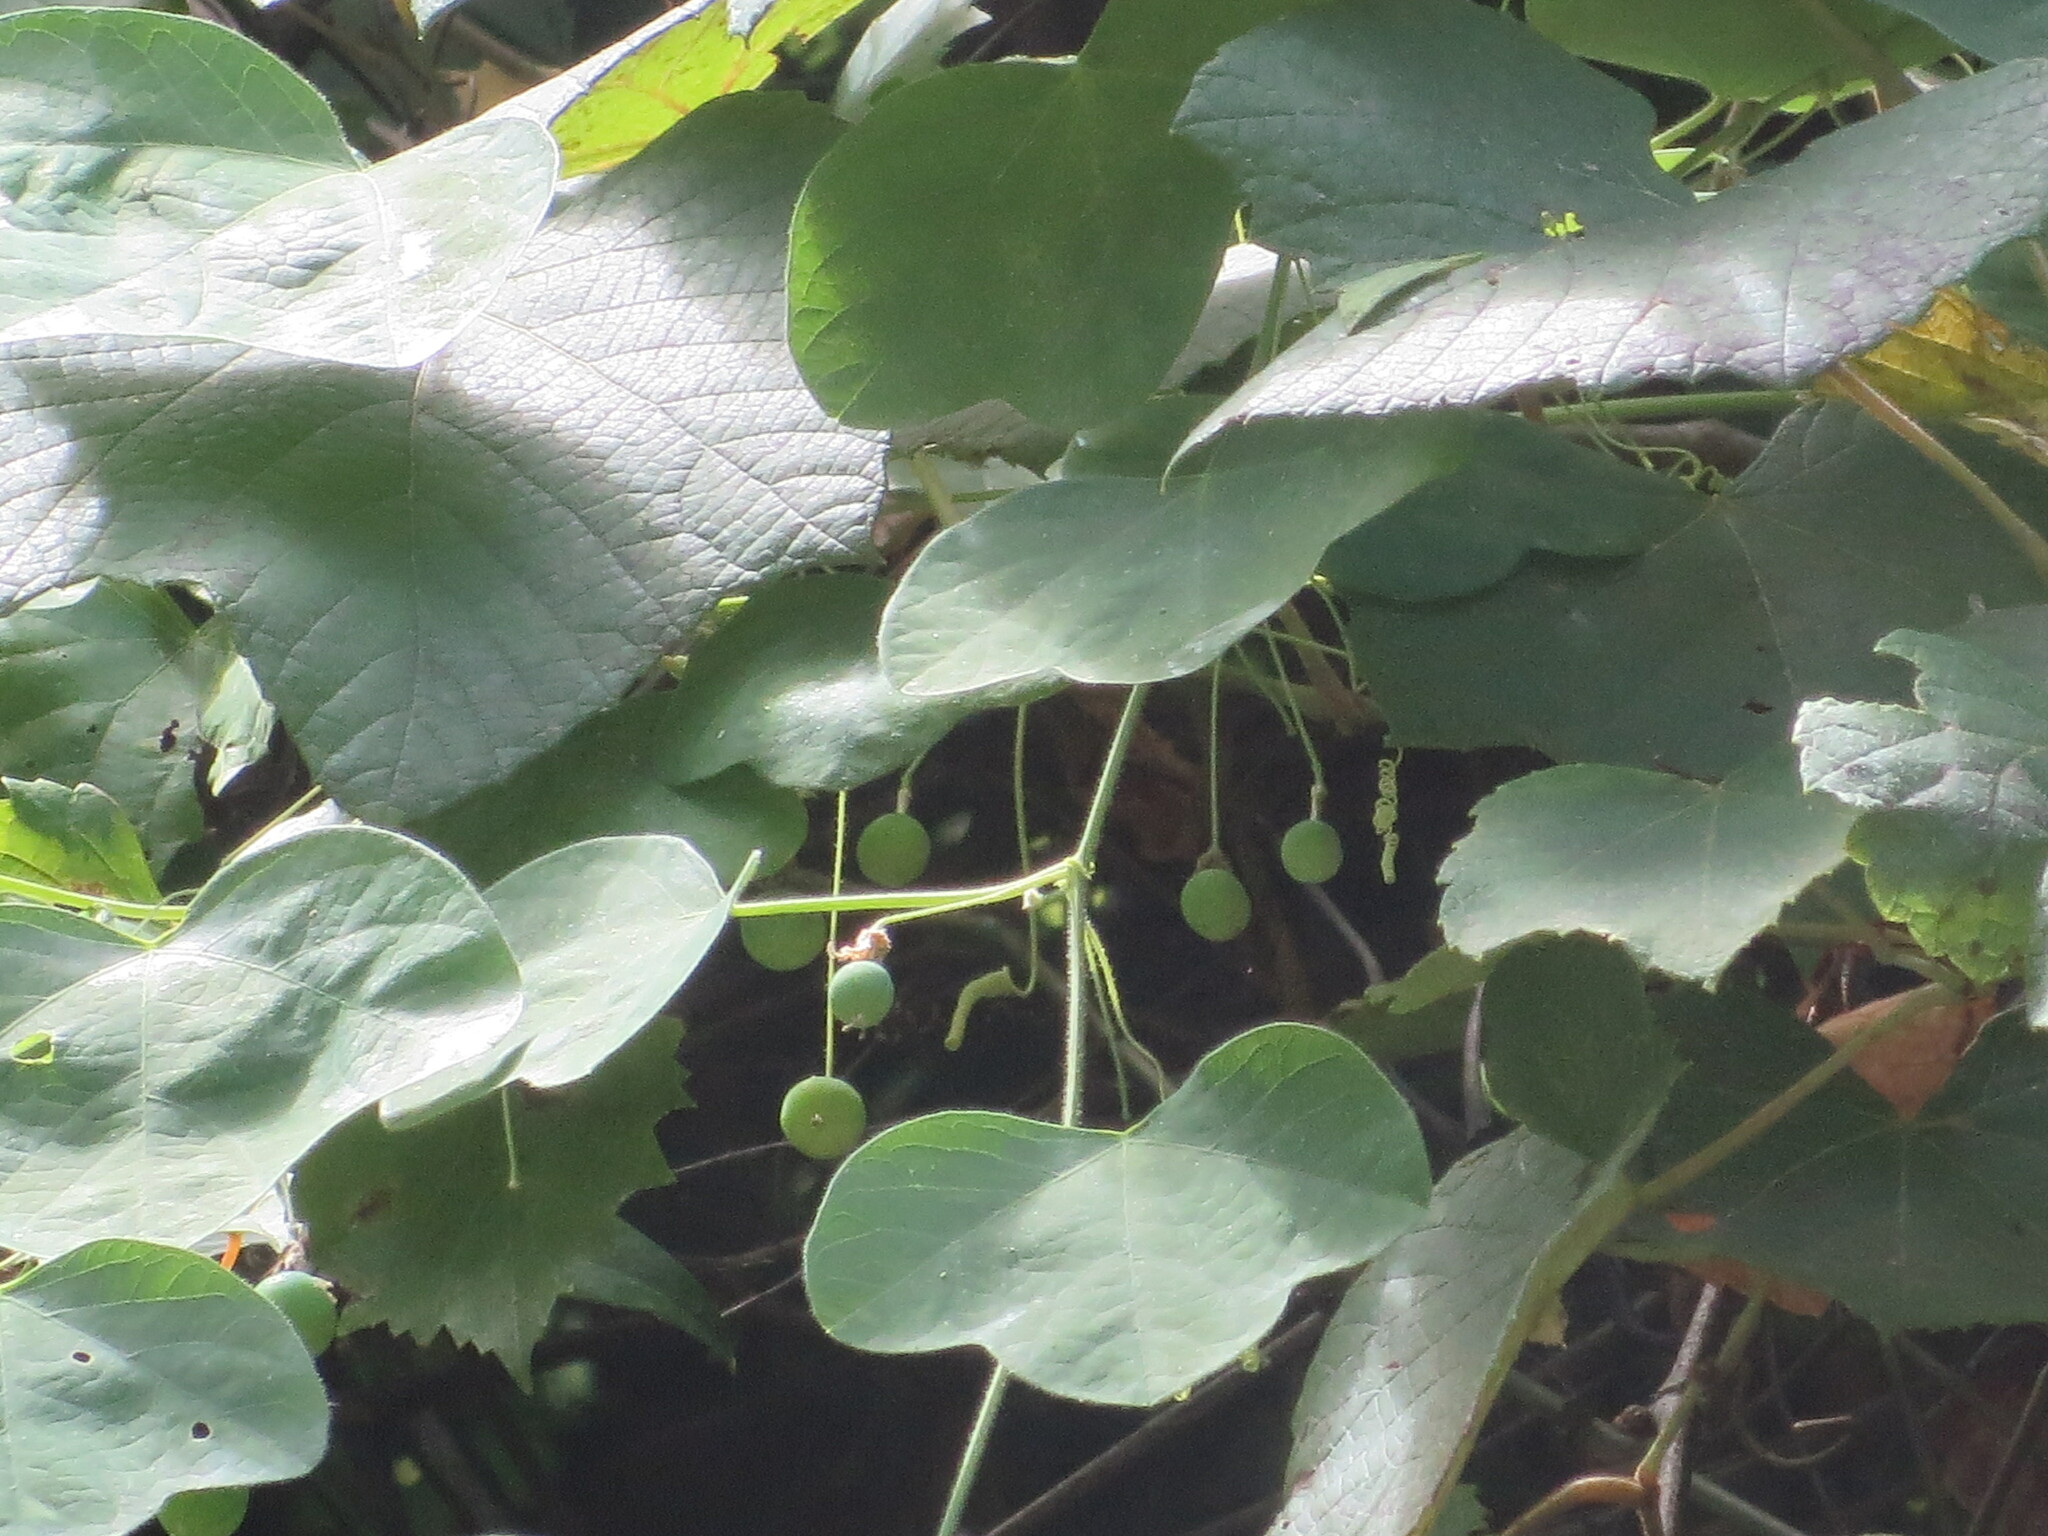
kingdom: Plantae
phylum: Tracheophyta
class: Magnoliopsida
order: Malpighiales
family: Passifloraceae
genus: Passiflora
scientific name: Passiflora lutea
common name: Yellow passionflower
